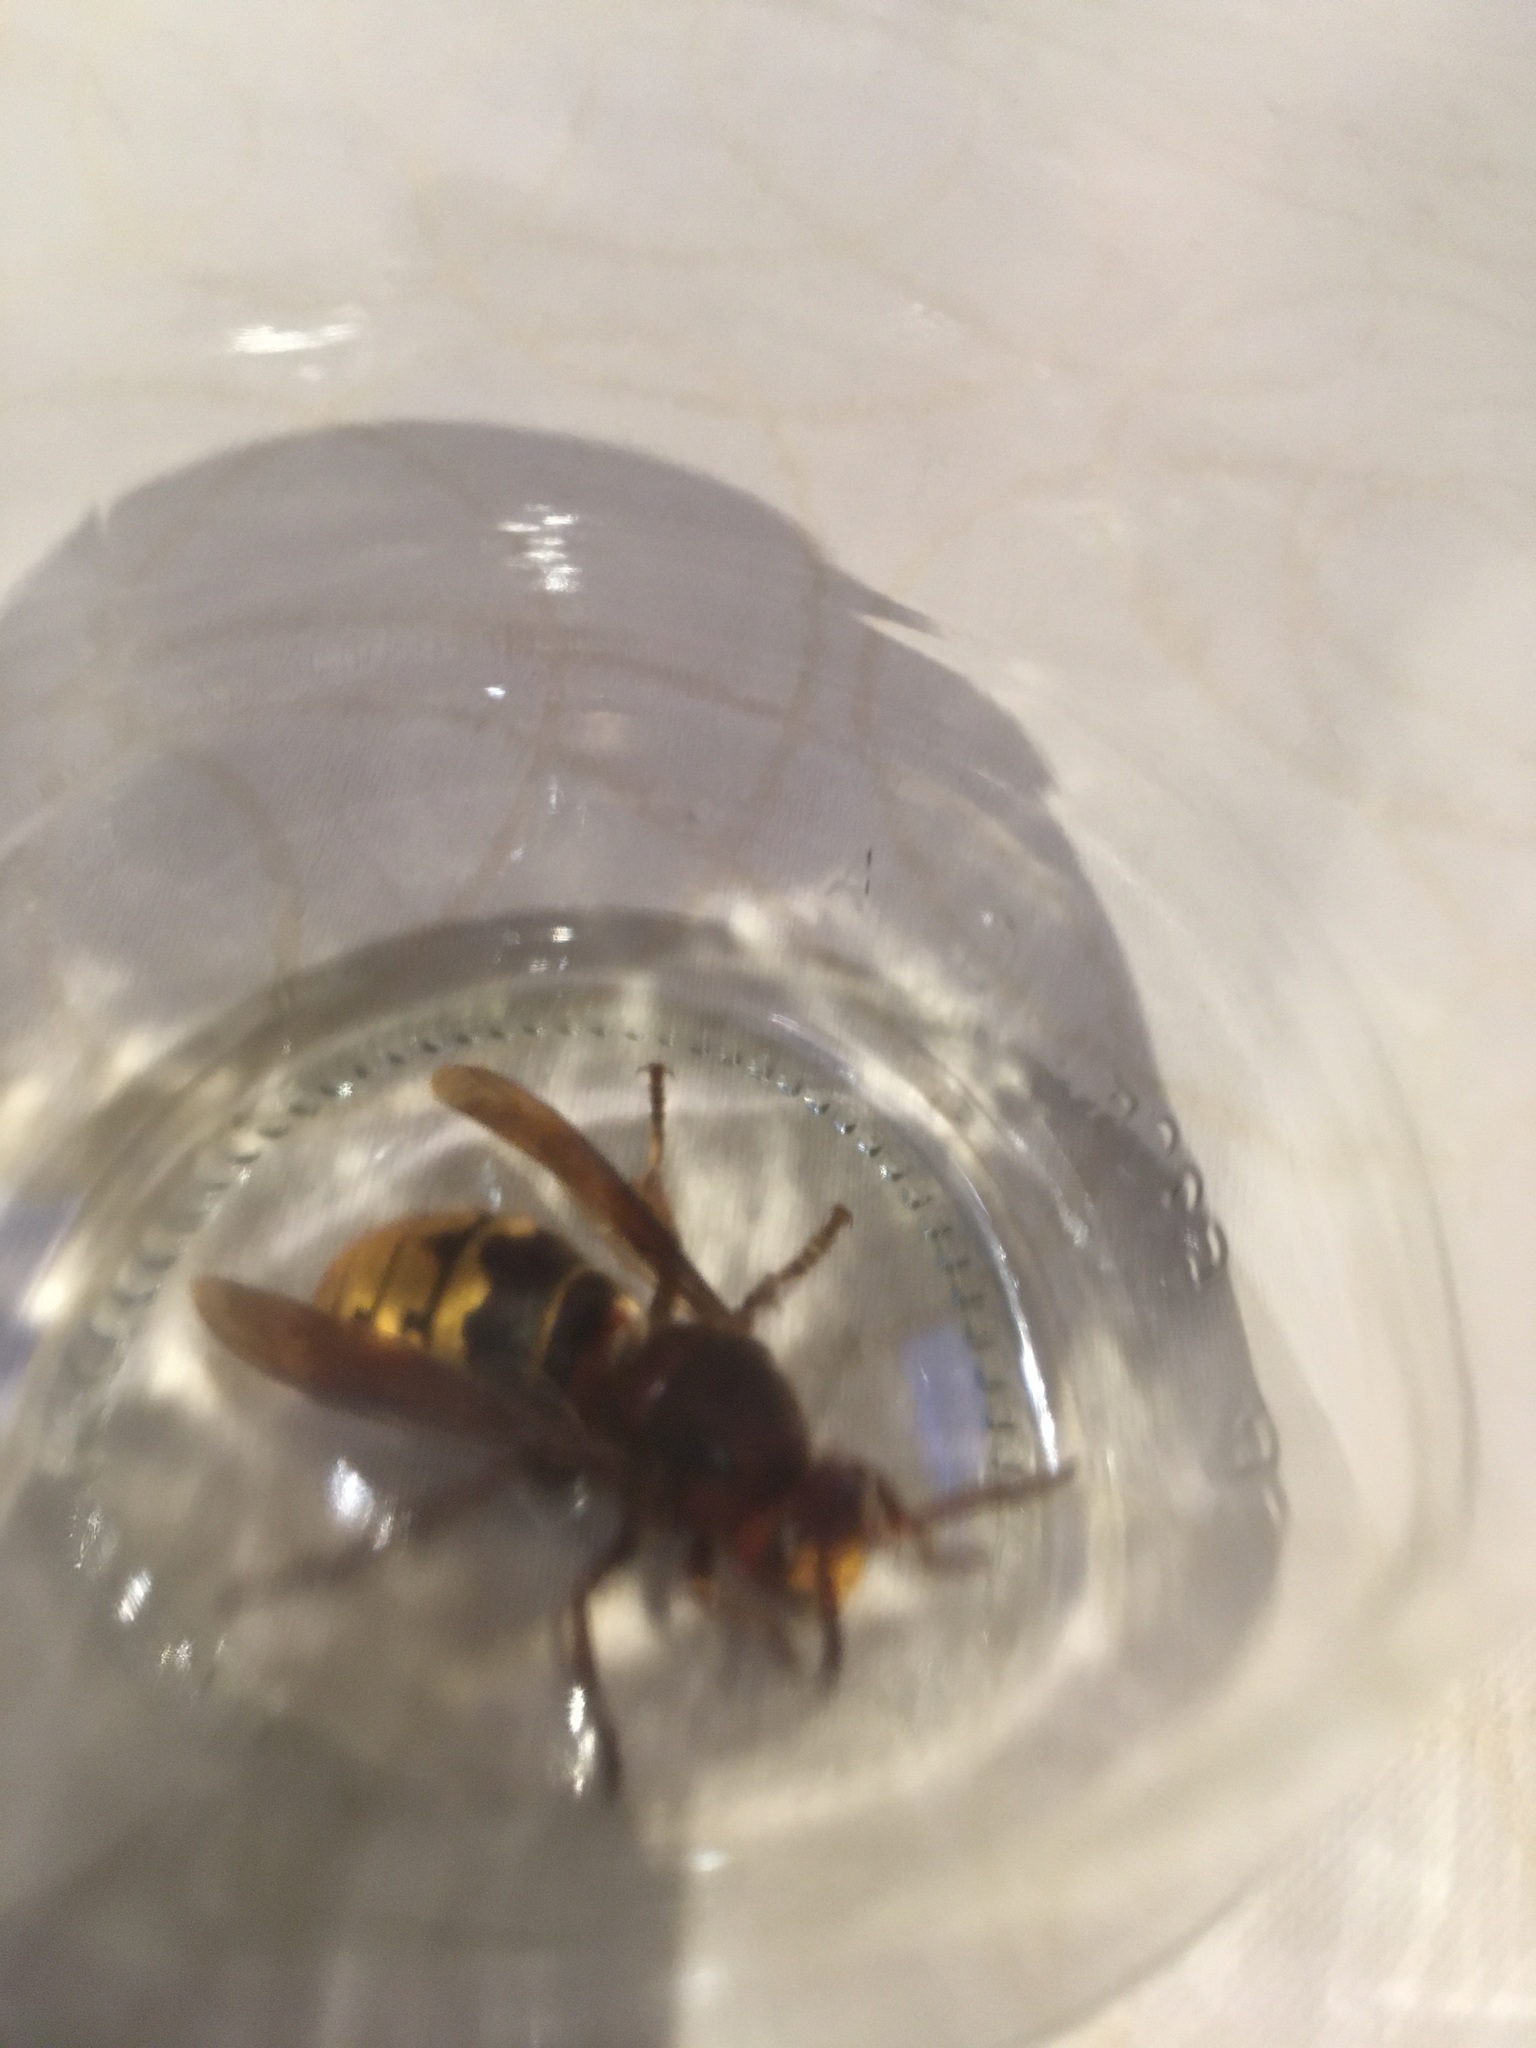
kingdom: Animalia
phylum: Arthropoda
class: Insecta
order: Hymenoptera
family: Vespidae
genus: Vespa
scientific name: Vespa crabro
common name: Hornet
